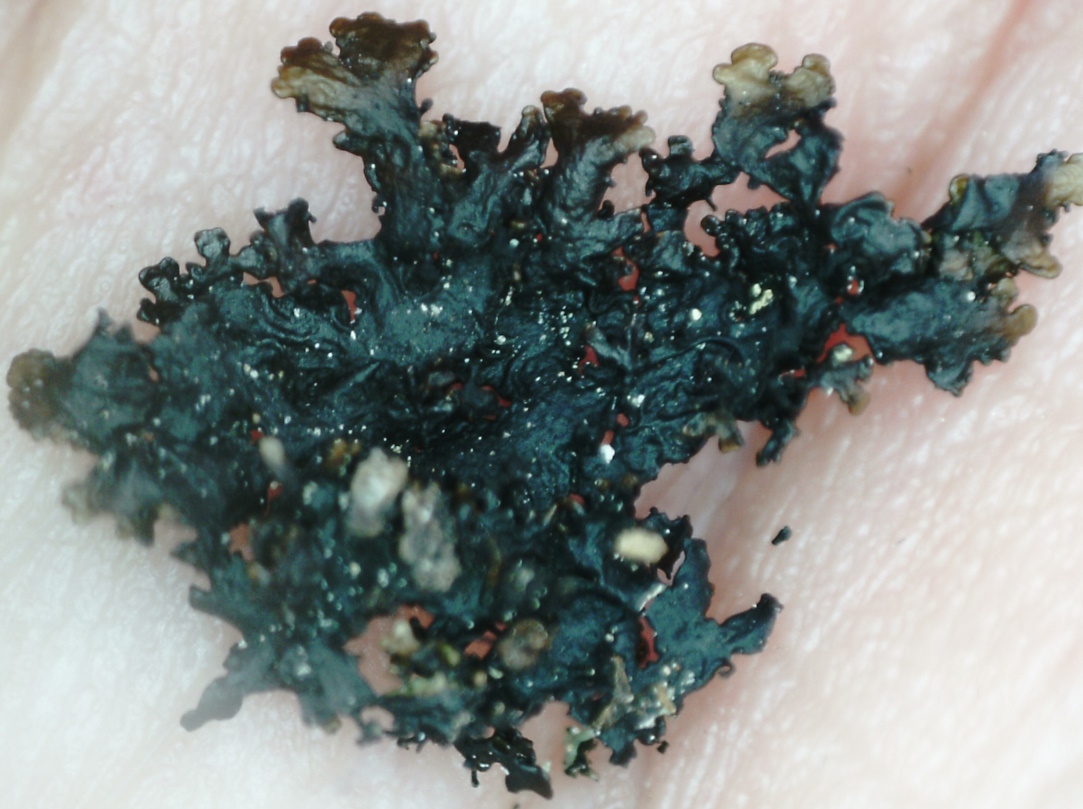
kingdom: Fungi
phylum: Ascomycota
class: Lecanoromycetes
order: Lecanorales
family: Parmeliaceae
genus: Melanelia
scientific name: Melanelia hepatizon
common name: Rimmed camouflage lichen
